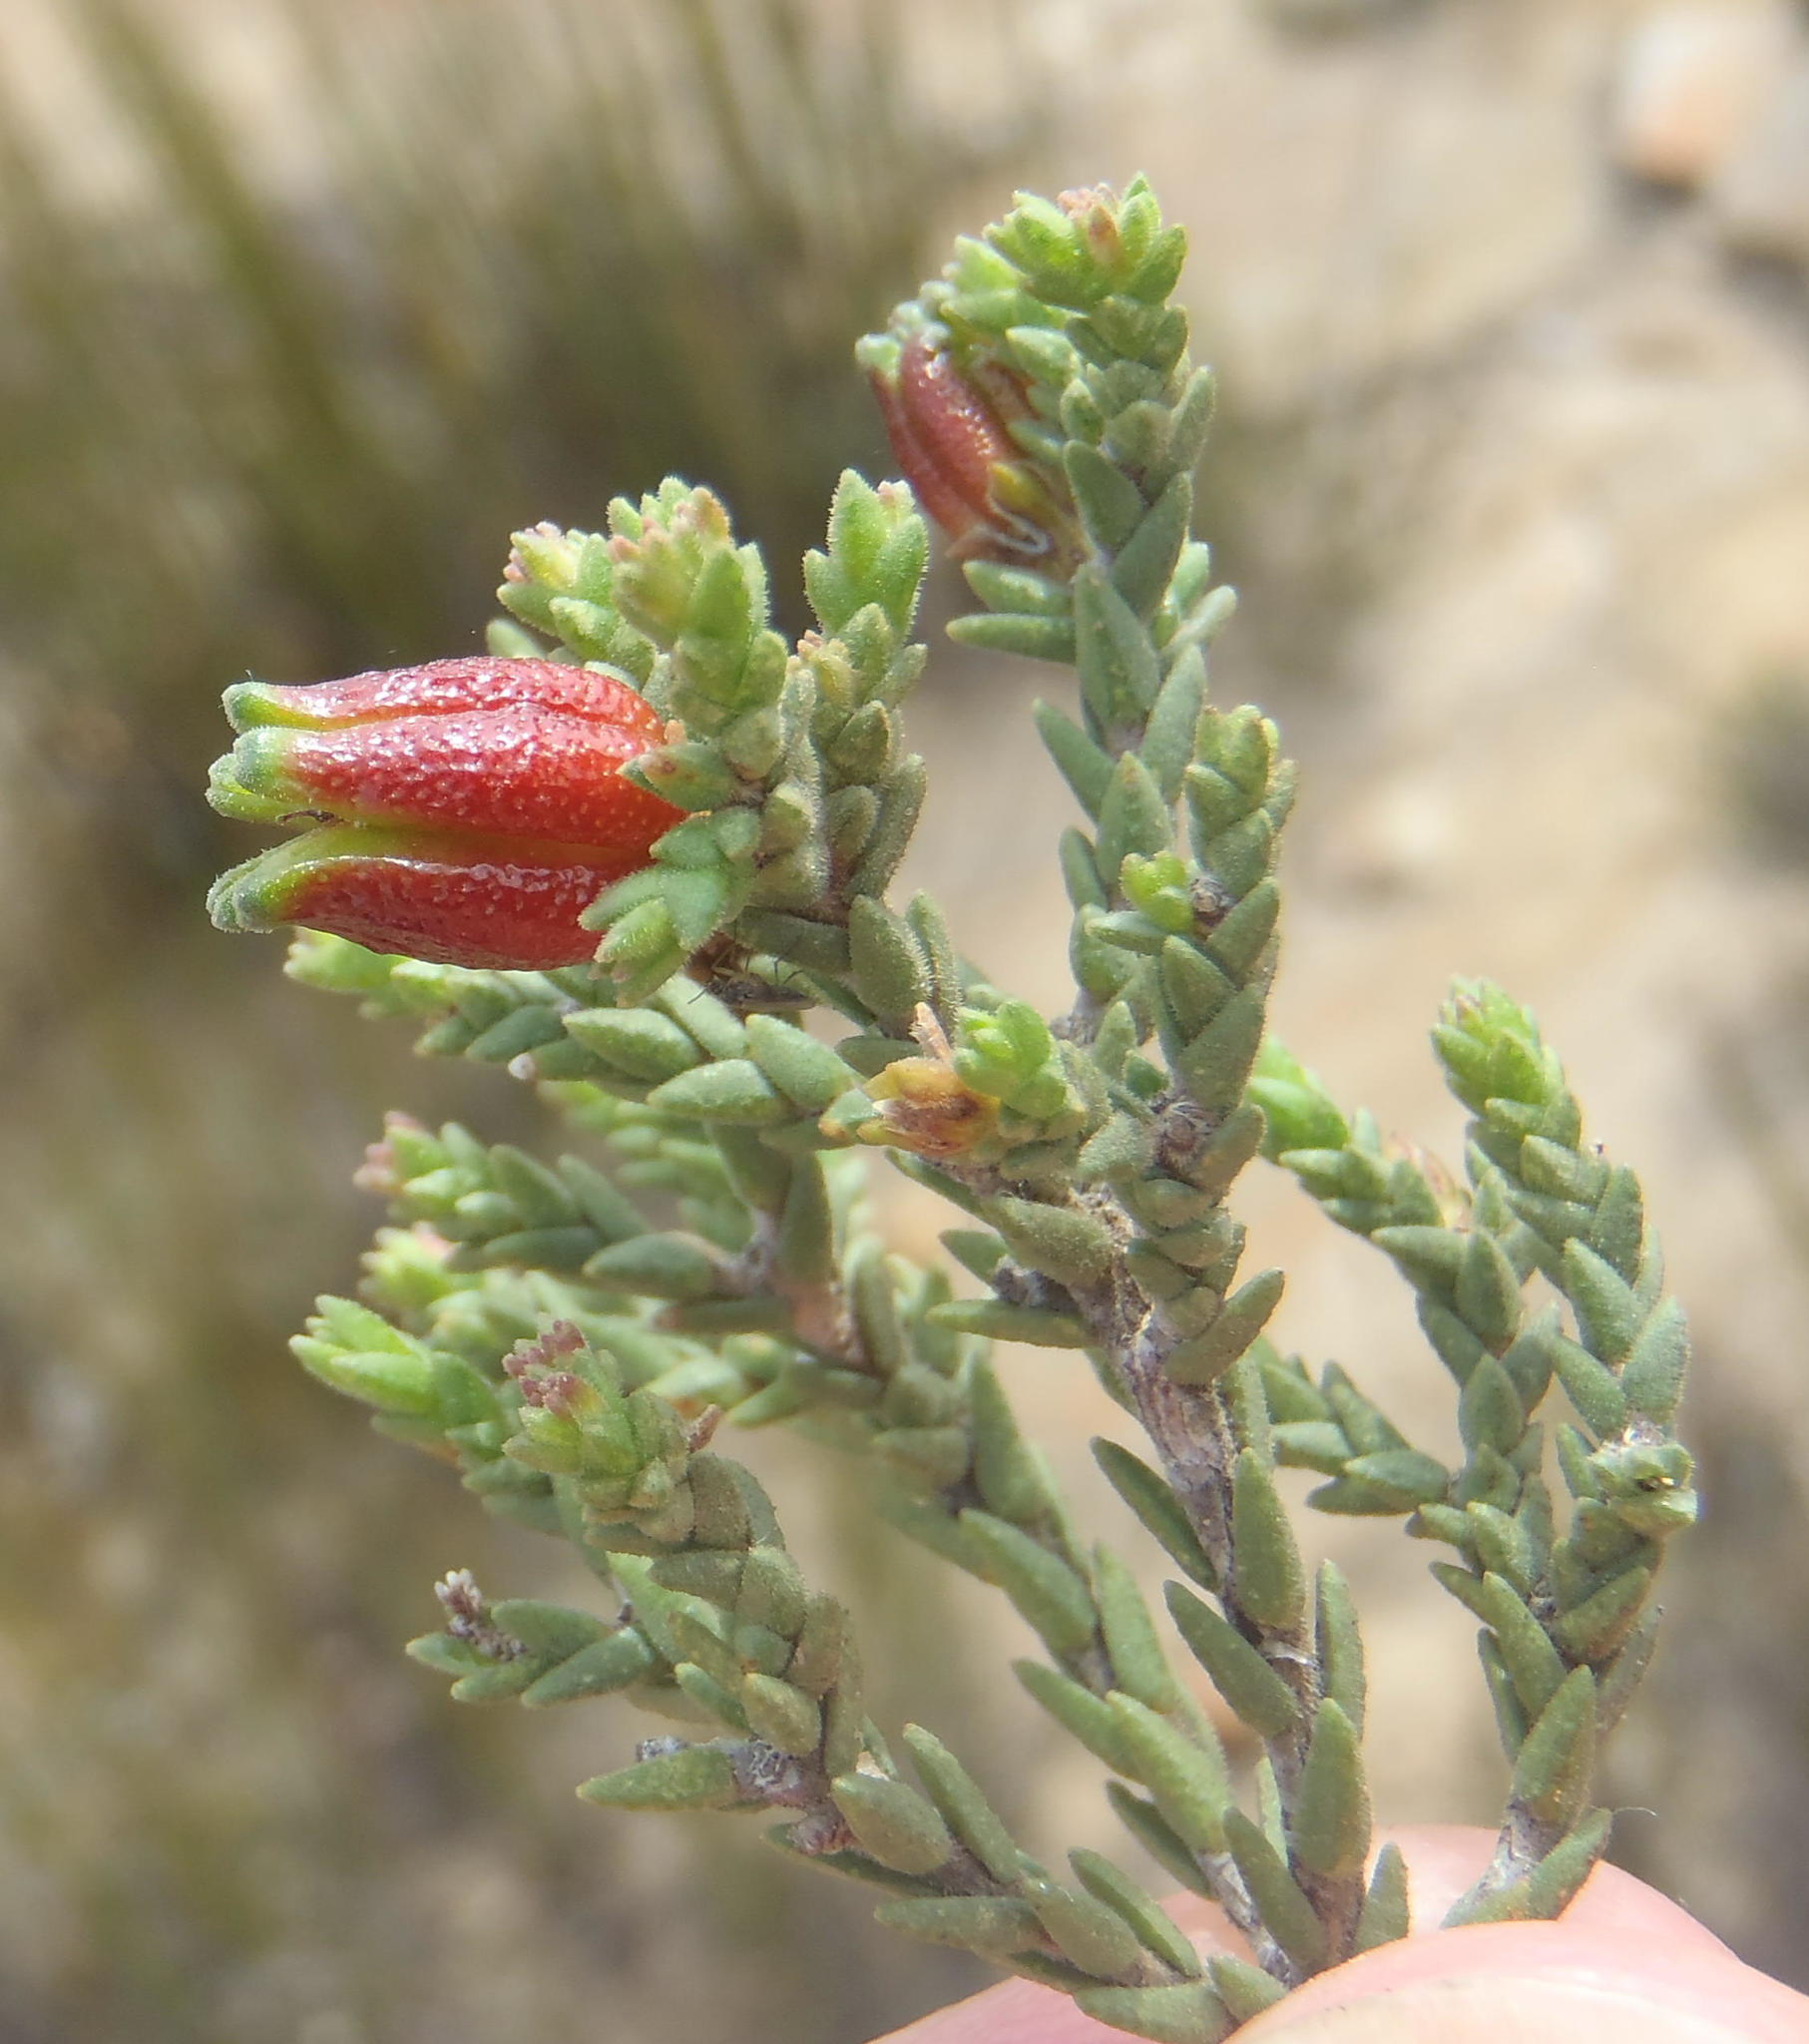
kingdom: Plantae
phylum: Tracheophyta
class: Magnoliopsida
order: Sapindales
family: Rutaceae
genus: Diosma
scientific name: Diosma prama
